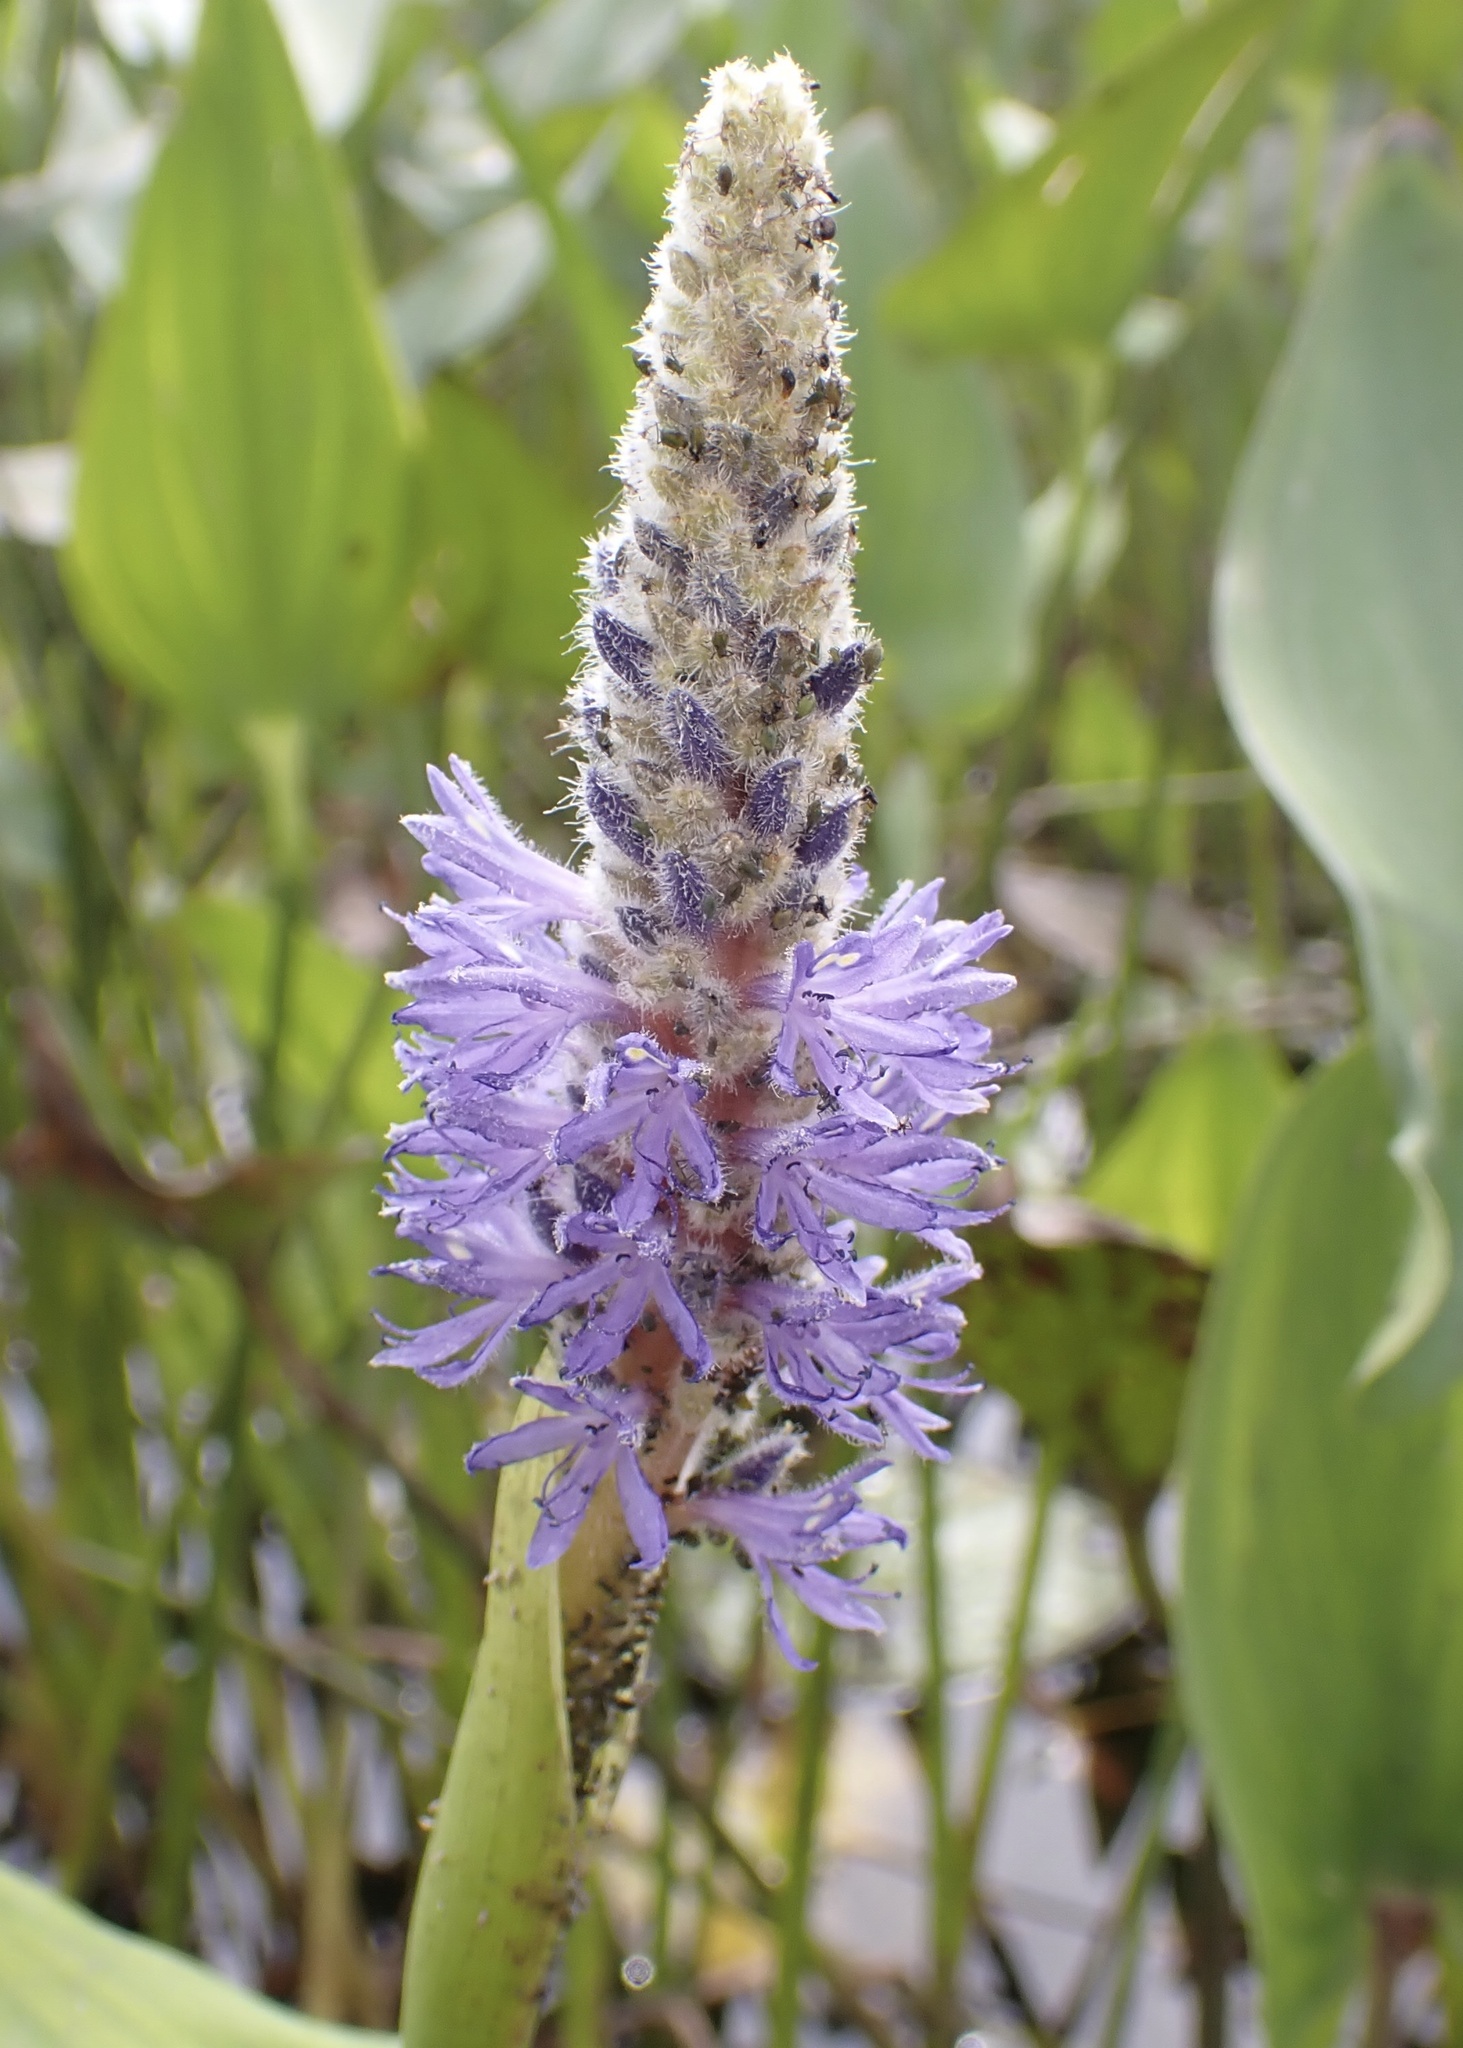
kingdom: Plantae
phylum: Tracheophyta
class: Liliopsida
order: Commelinales
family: Pontederiaceae
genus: Pontederia
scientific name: Pontederia cordata
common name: Pickerelweed
